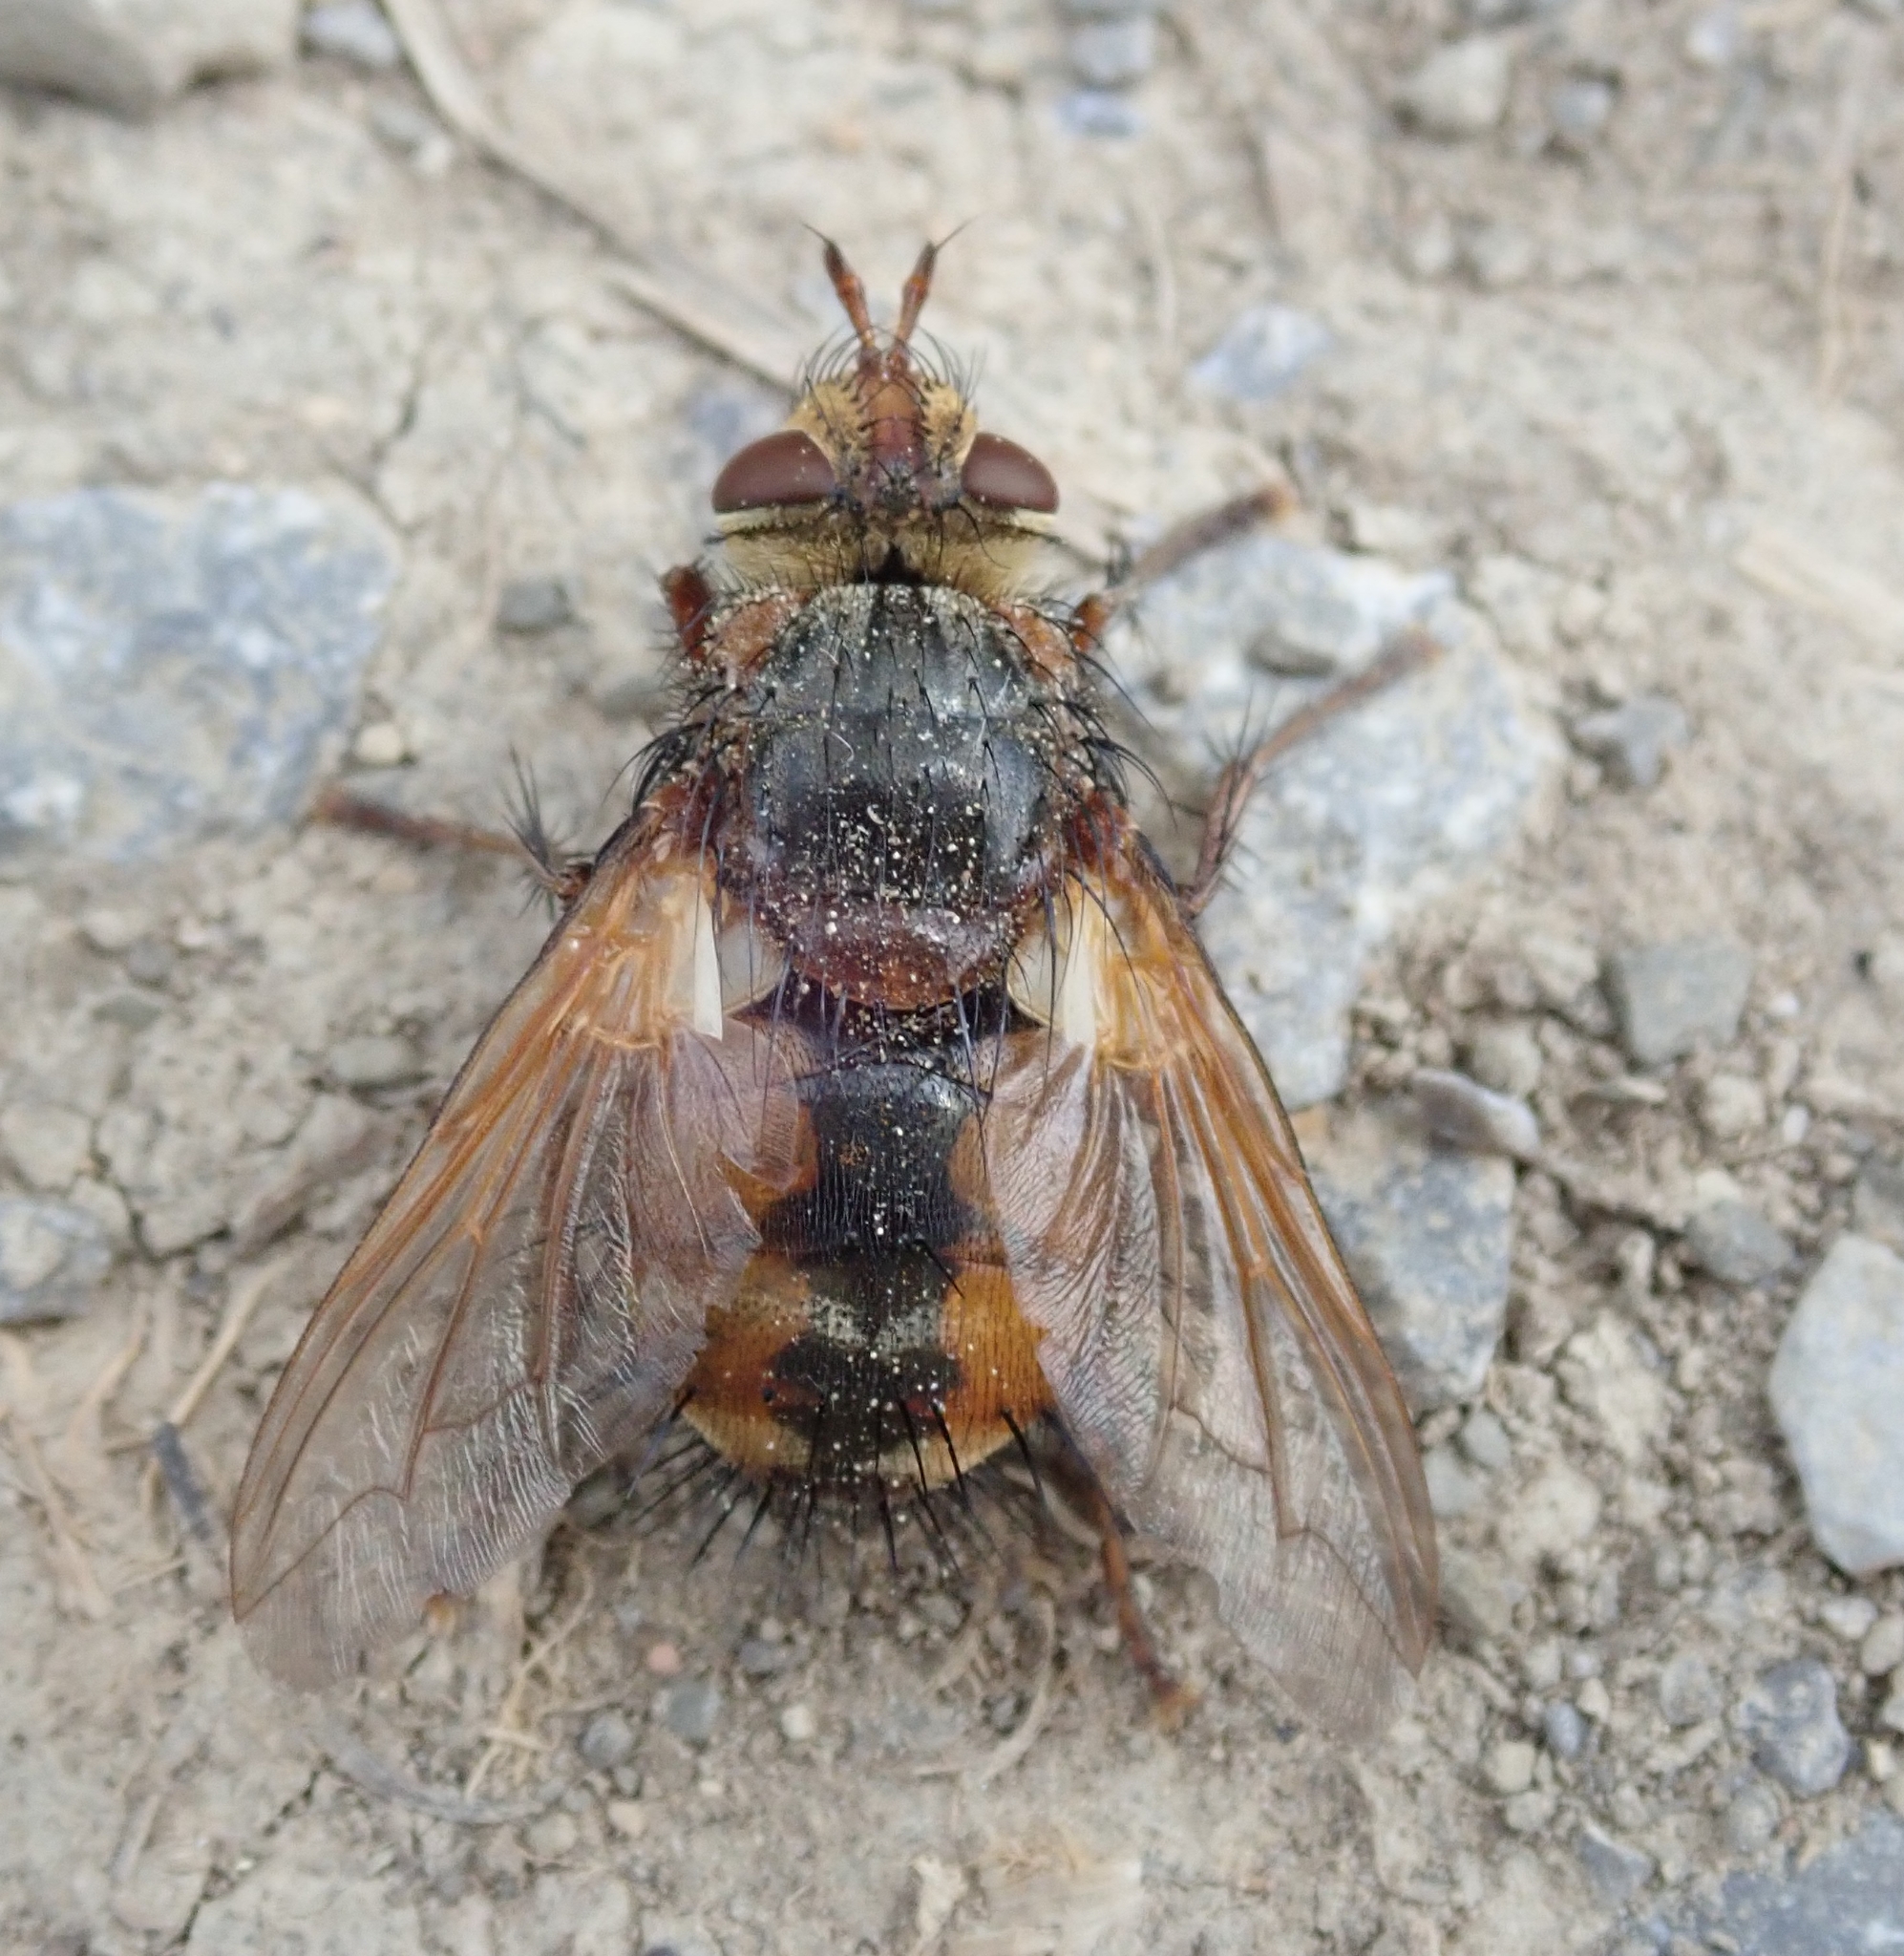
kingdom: Animalia
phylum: Arthropoda
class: Insecta
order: Diptera
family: Tachinidae
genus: Tachina
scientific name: Tachina fera
